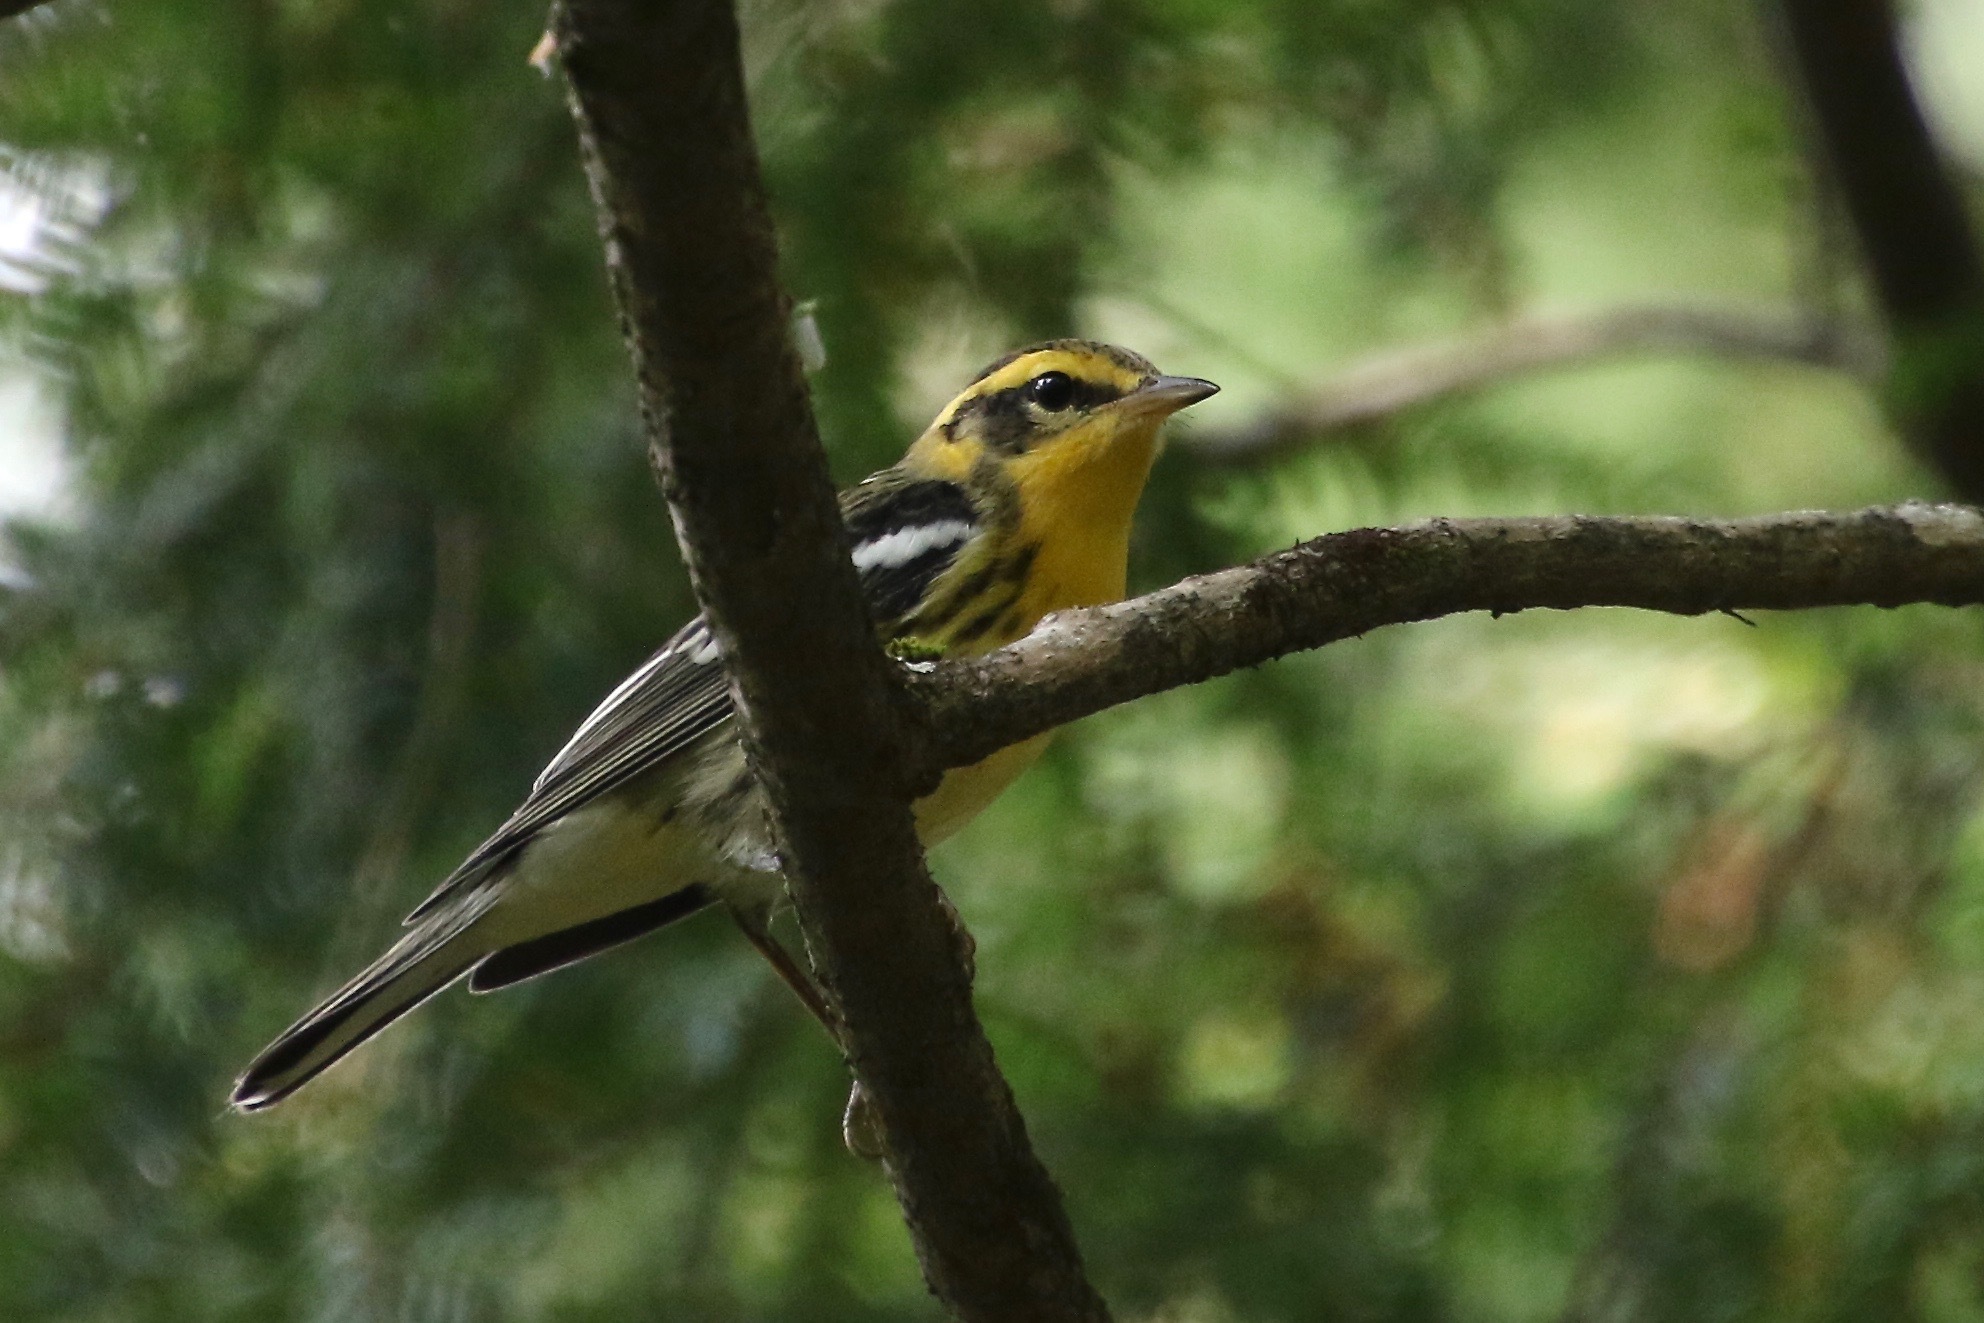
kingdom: Animalia
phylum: Chordata
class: Aves
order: Passeriformes
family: Parulidae
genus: Setophaga
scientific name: Setophaga fusca
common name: Blackburnian warbler
